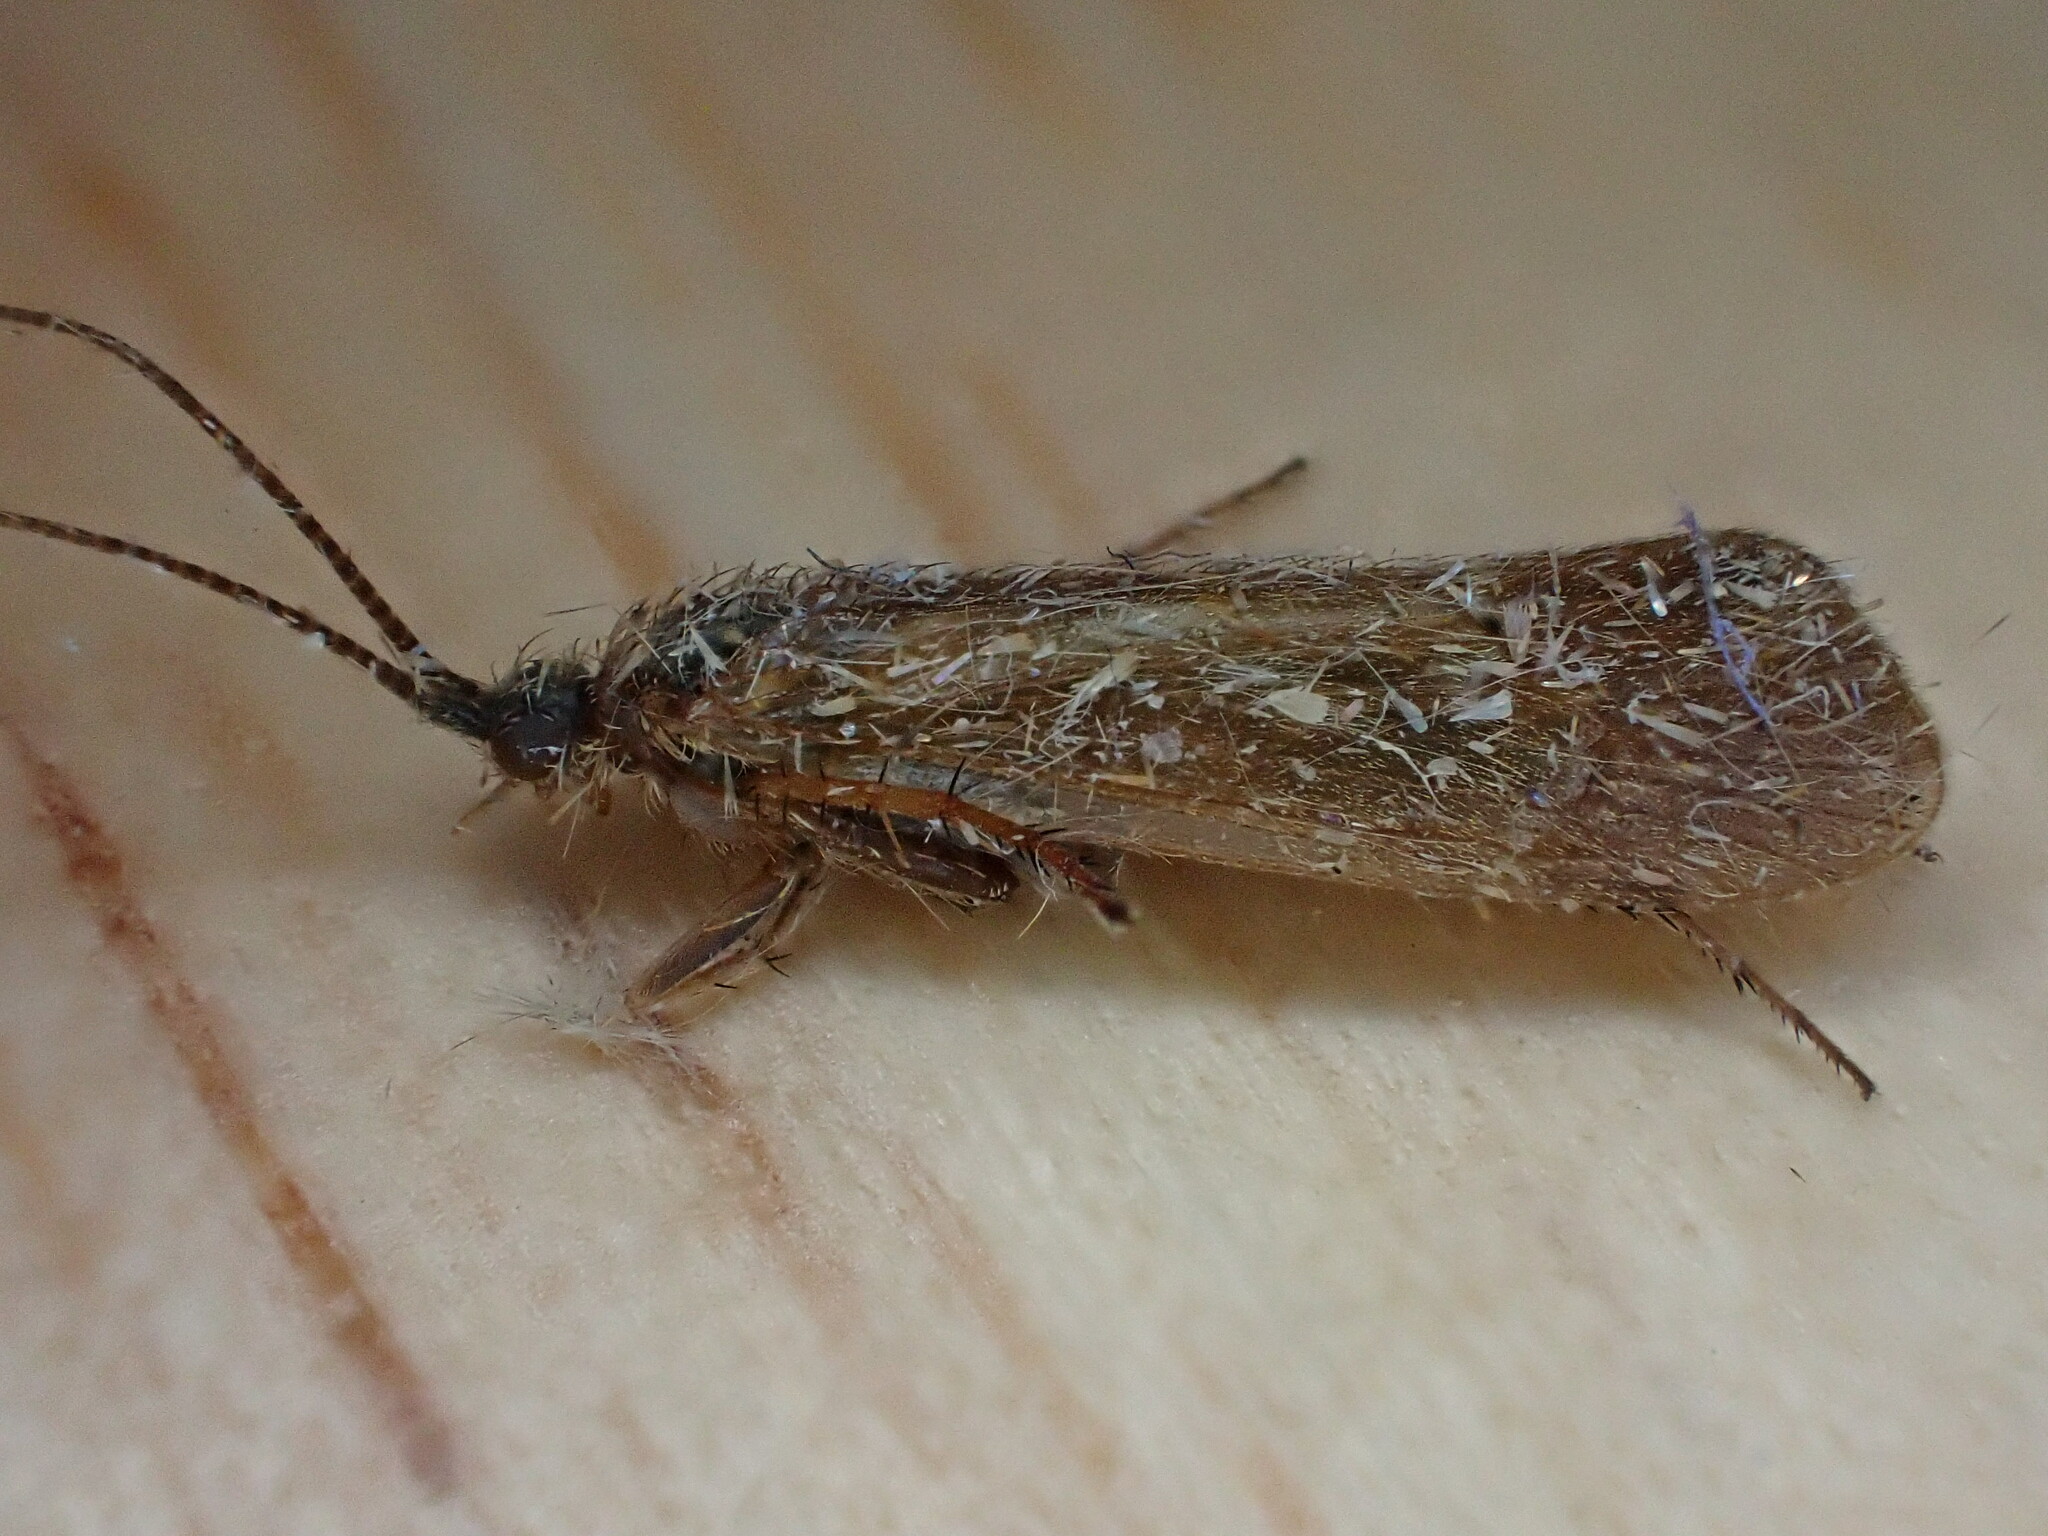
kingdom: Animalia
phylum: Arthropoda
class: Insecta
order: Trichoptera
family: Limnephilidae
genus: Limnephilus
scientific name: Limnephilus auricula
